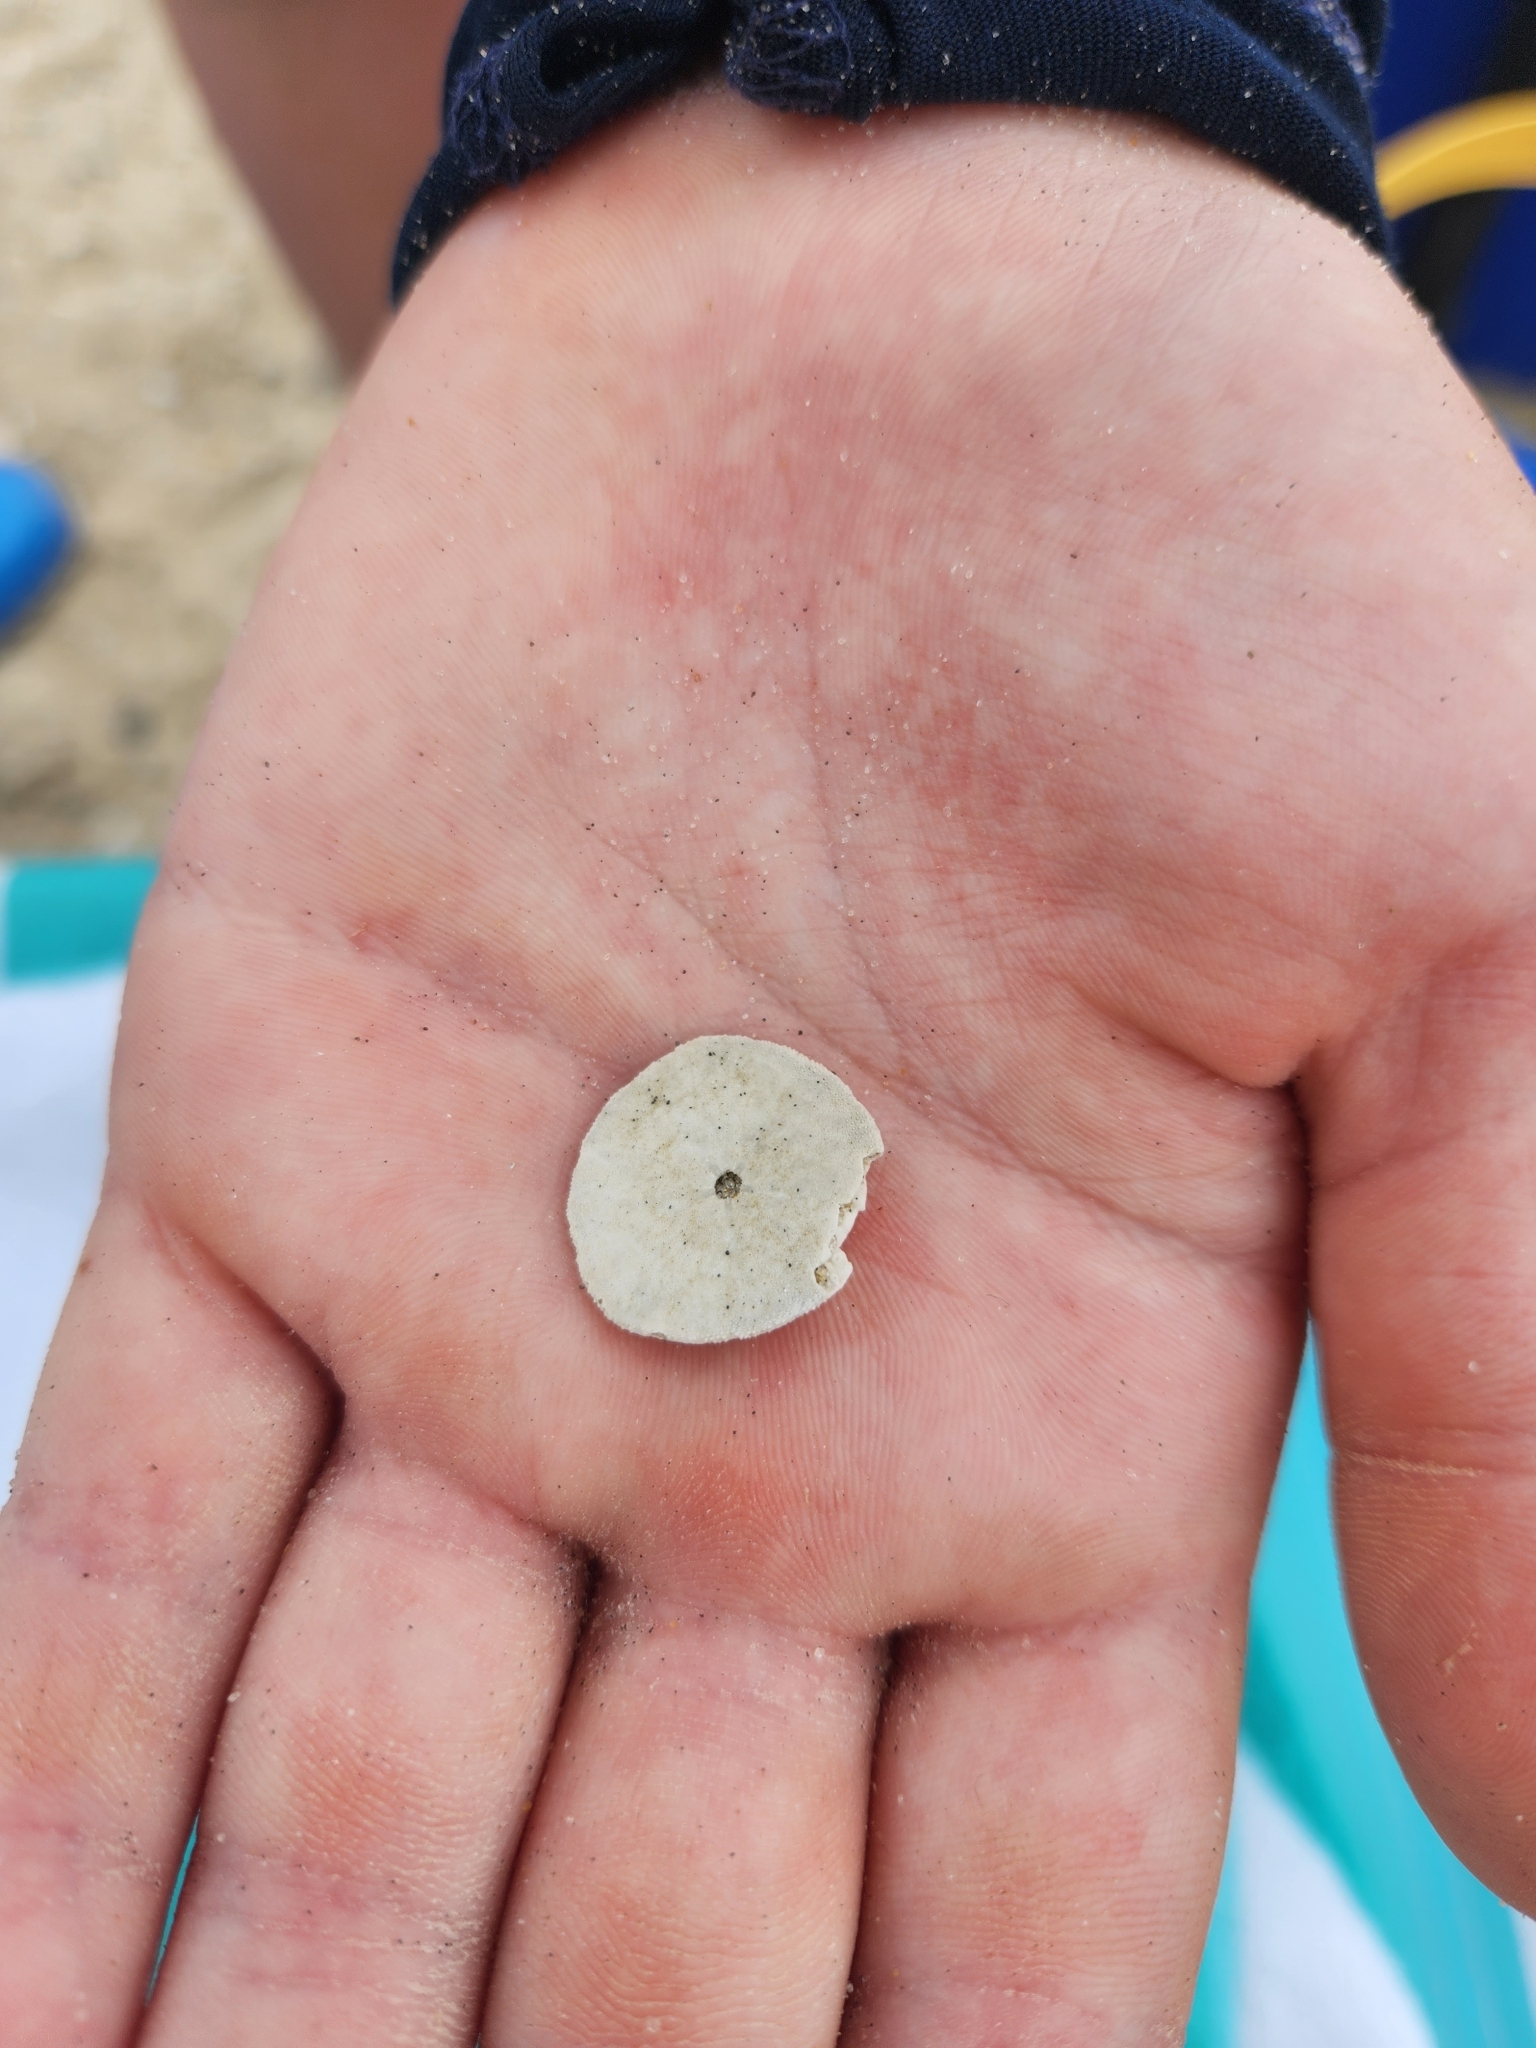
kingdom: Animalia
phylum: Echinodermata
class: Echinoidea
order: Echinolampadacea
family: Echinarachniidae
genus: Echinarachnius
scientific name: Echinarachnius parma
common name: Common sand dollar
